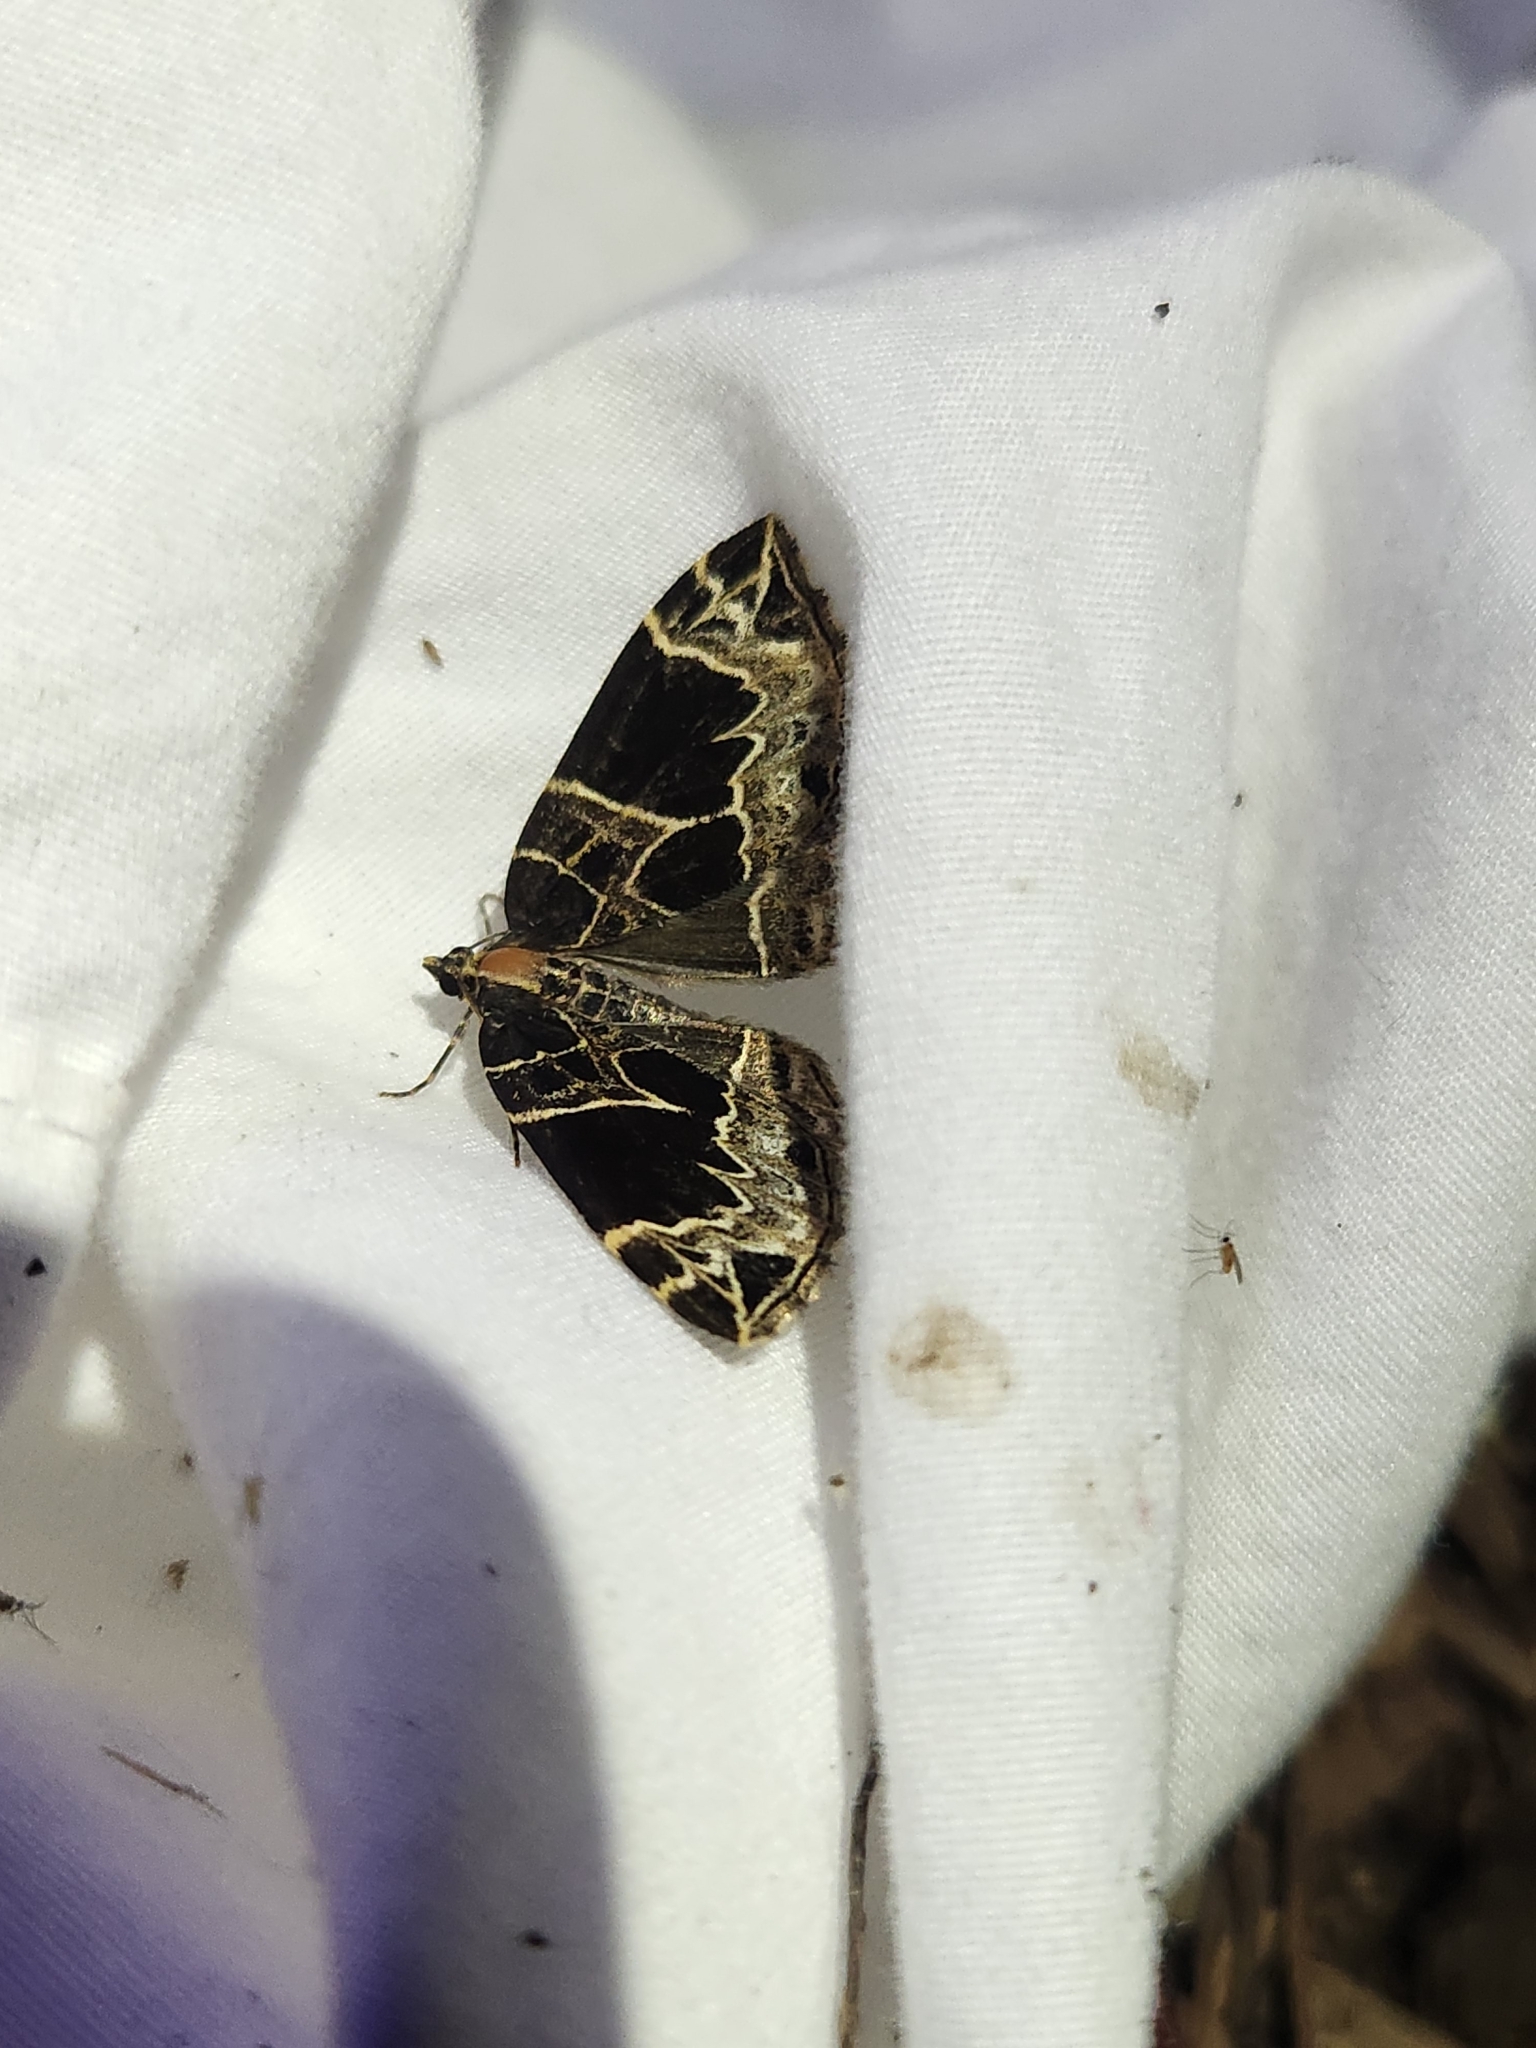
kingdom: Animalia
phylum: Arthropoda
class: Insecta
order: Lepidoptera
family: Geometridae
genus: Ecliptopera
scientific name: Ecliptopera atricolorata
